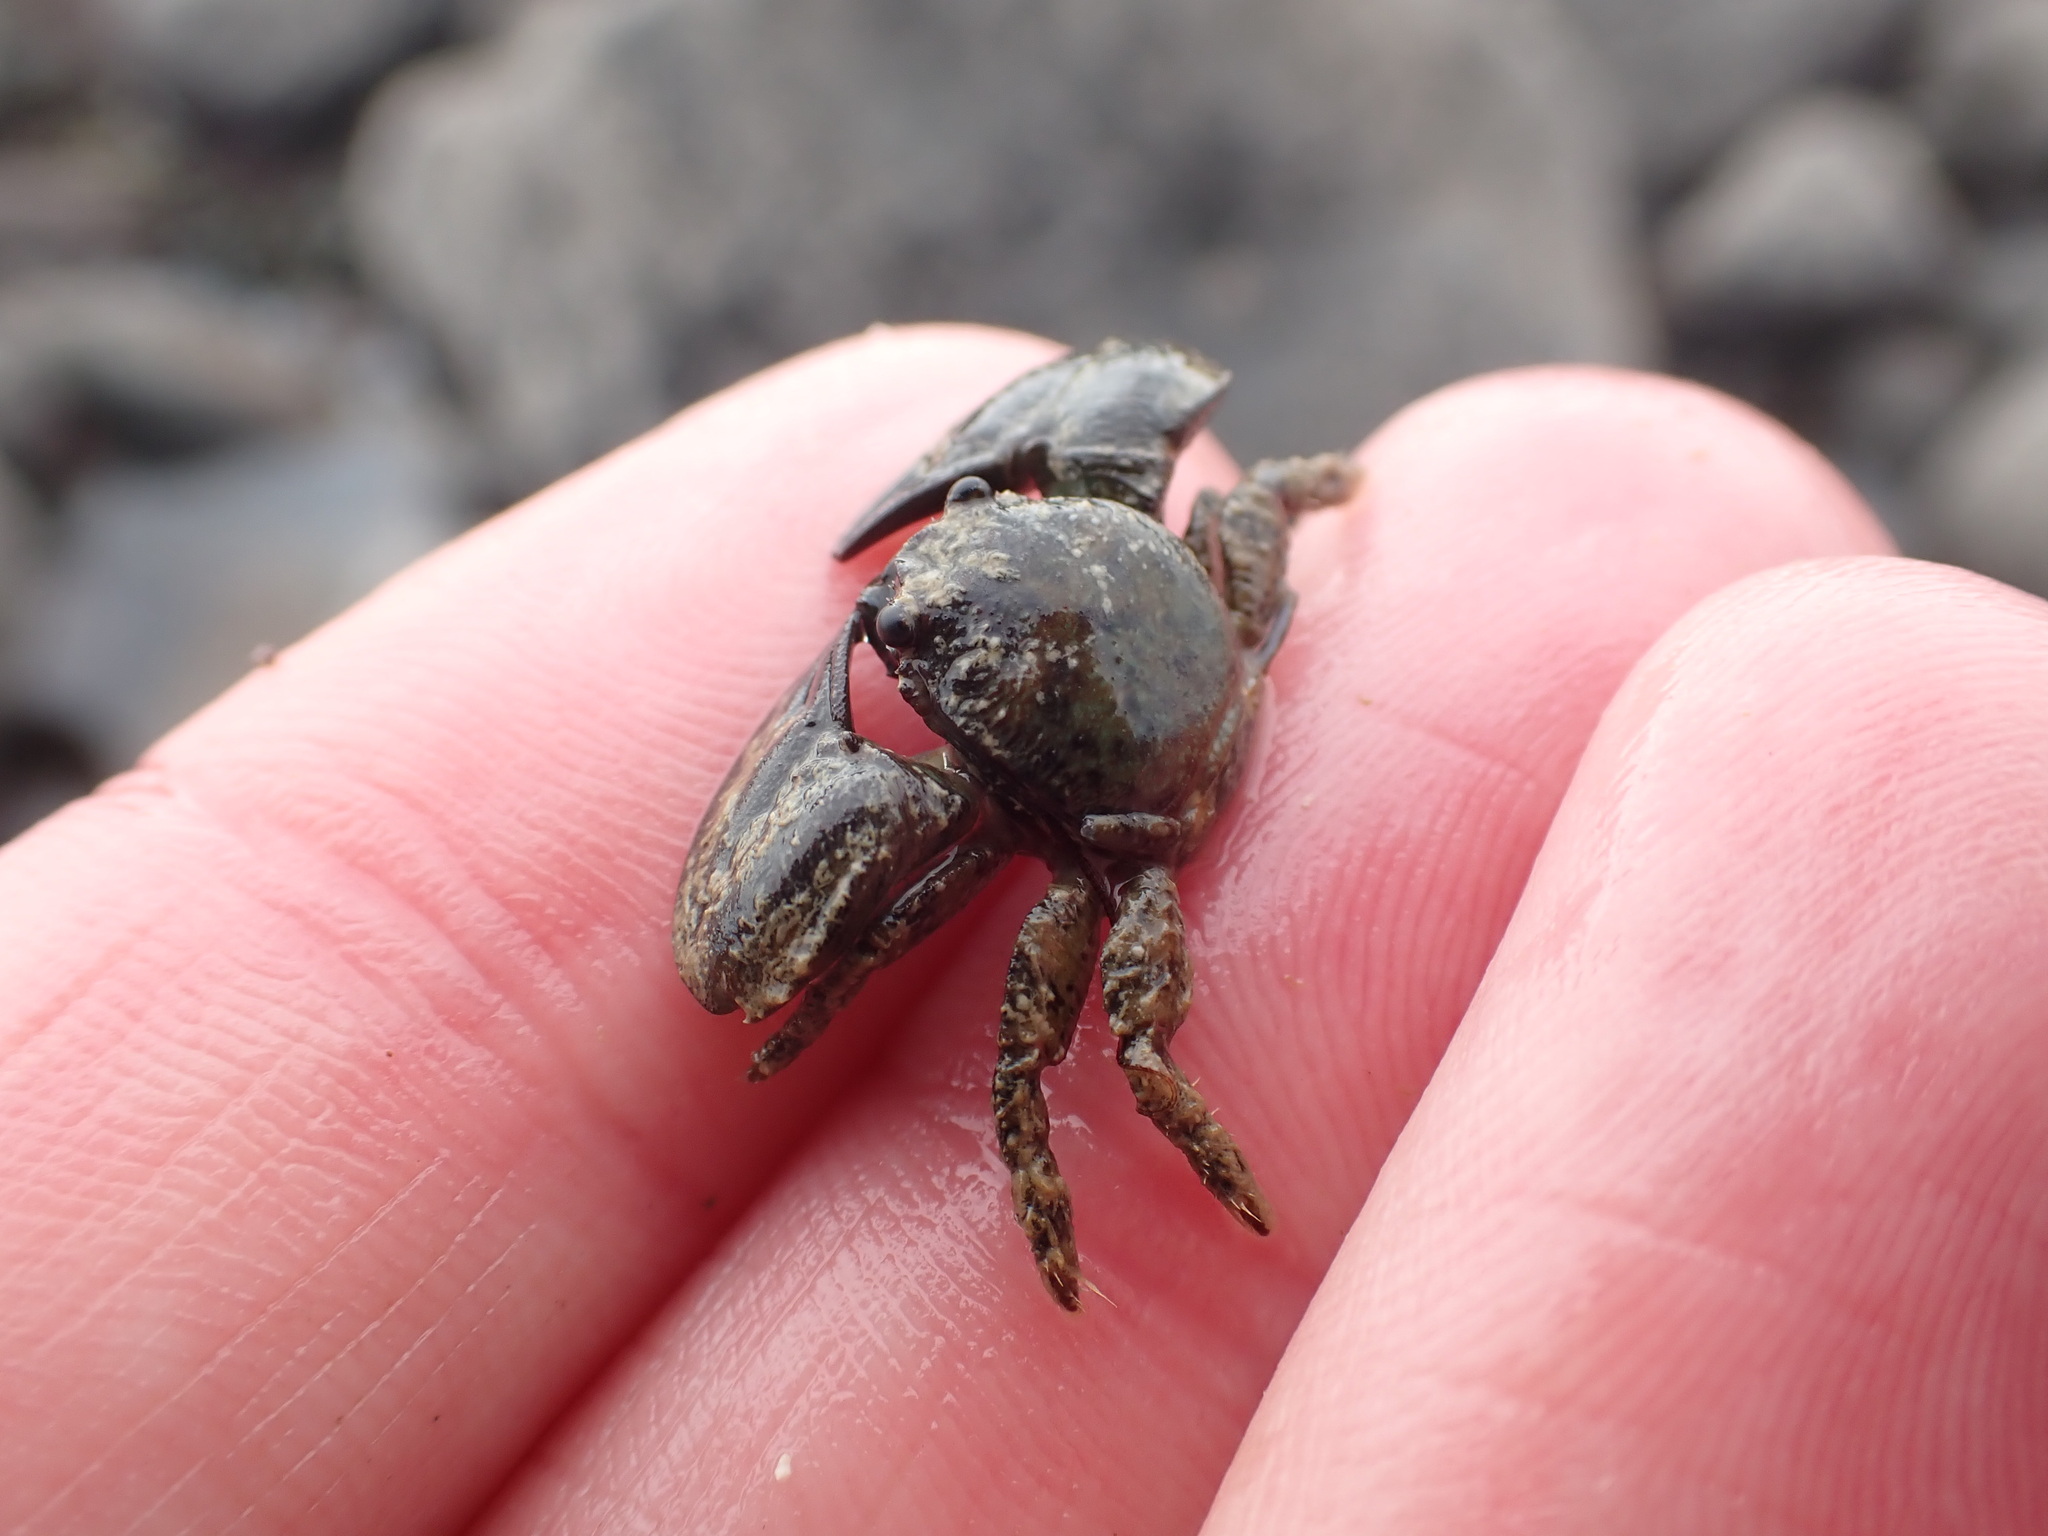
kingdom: Animalia
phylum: Arthropoda
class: Malacostraca
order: Decapoda
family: Porcellanidae
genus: Petrolisthes
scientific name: Petrolisthes elongatus
